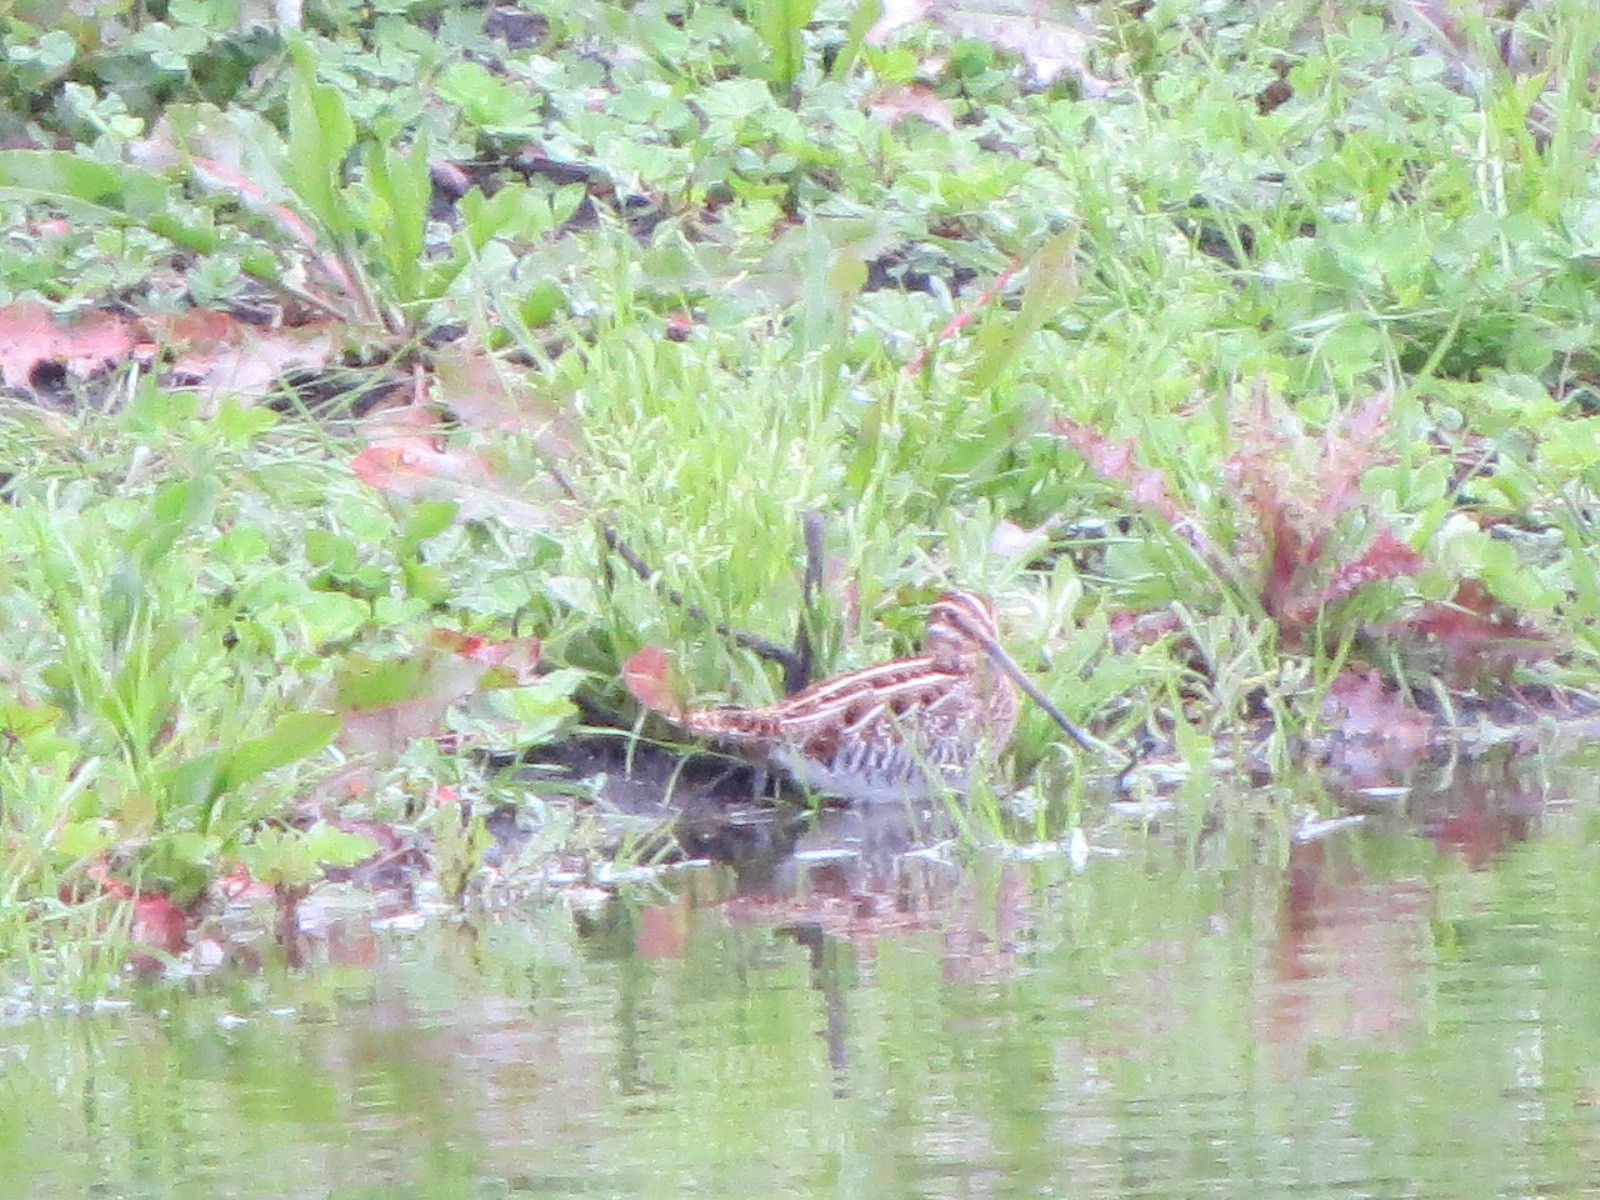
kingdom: Animalia
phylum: Chordata
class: Aves
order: Charadriiformes
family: Scolopacidae
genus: Gallinago
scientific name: Gallinago delicata
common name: Wilson's snipe
